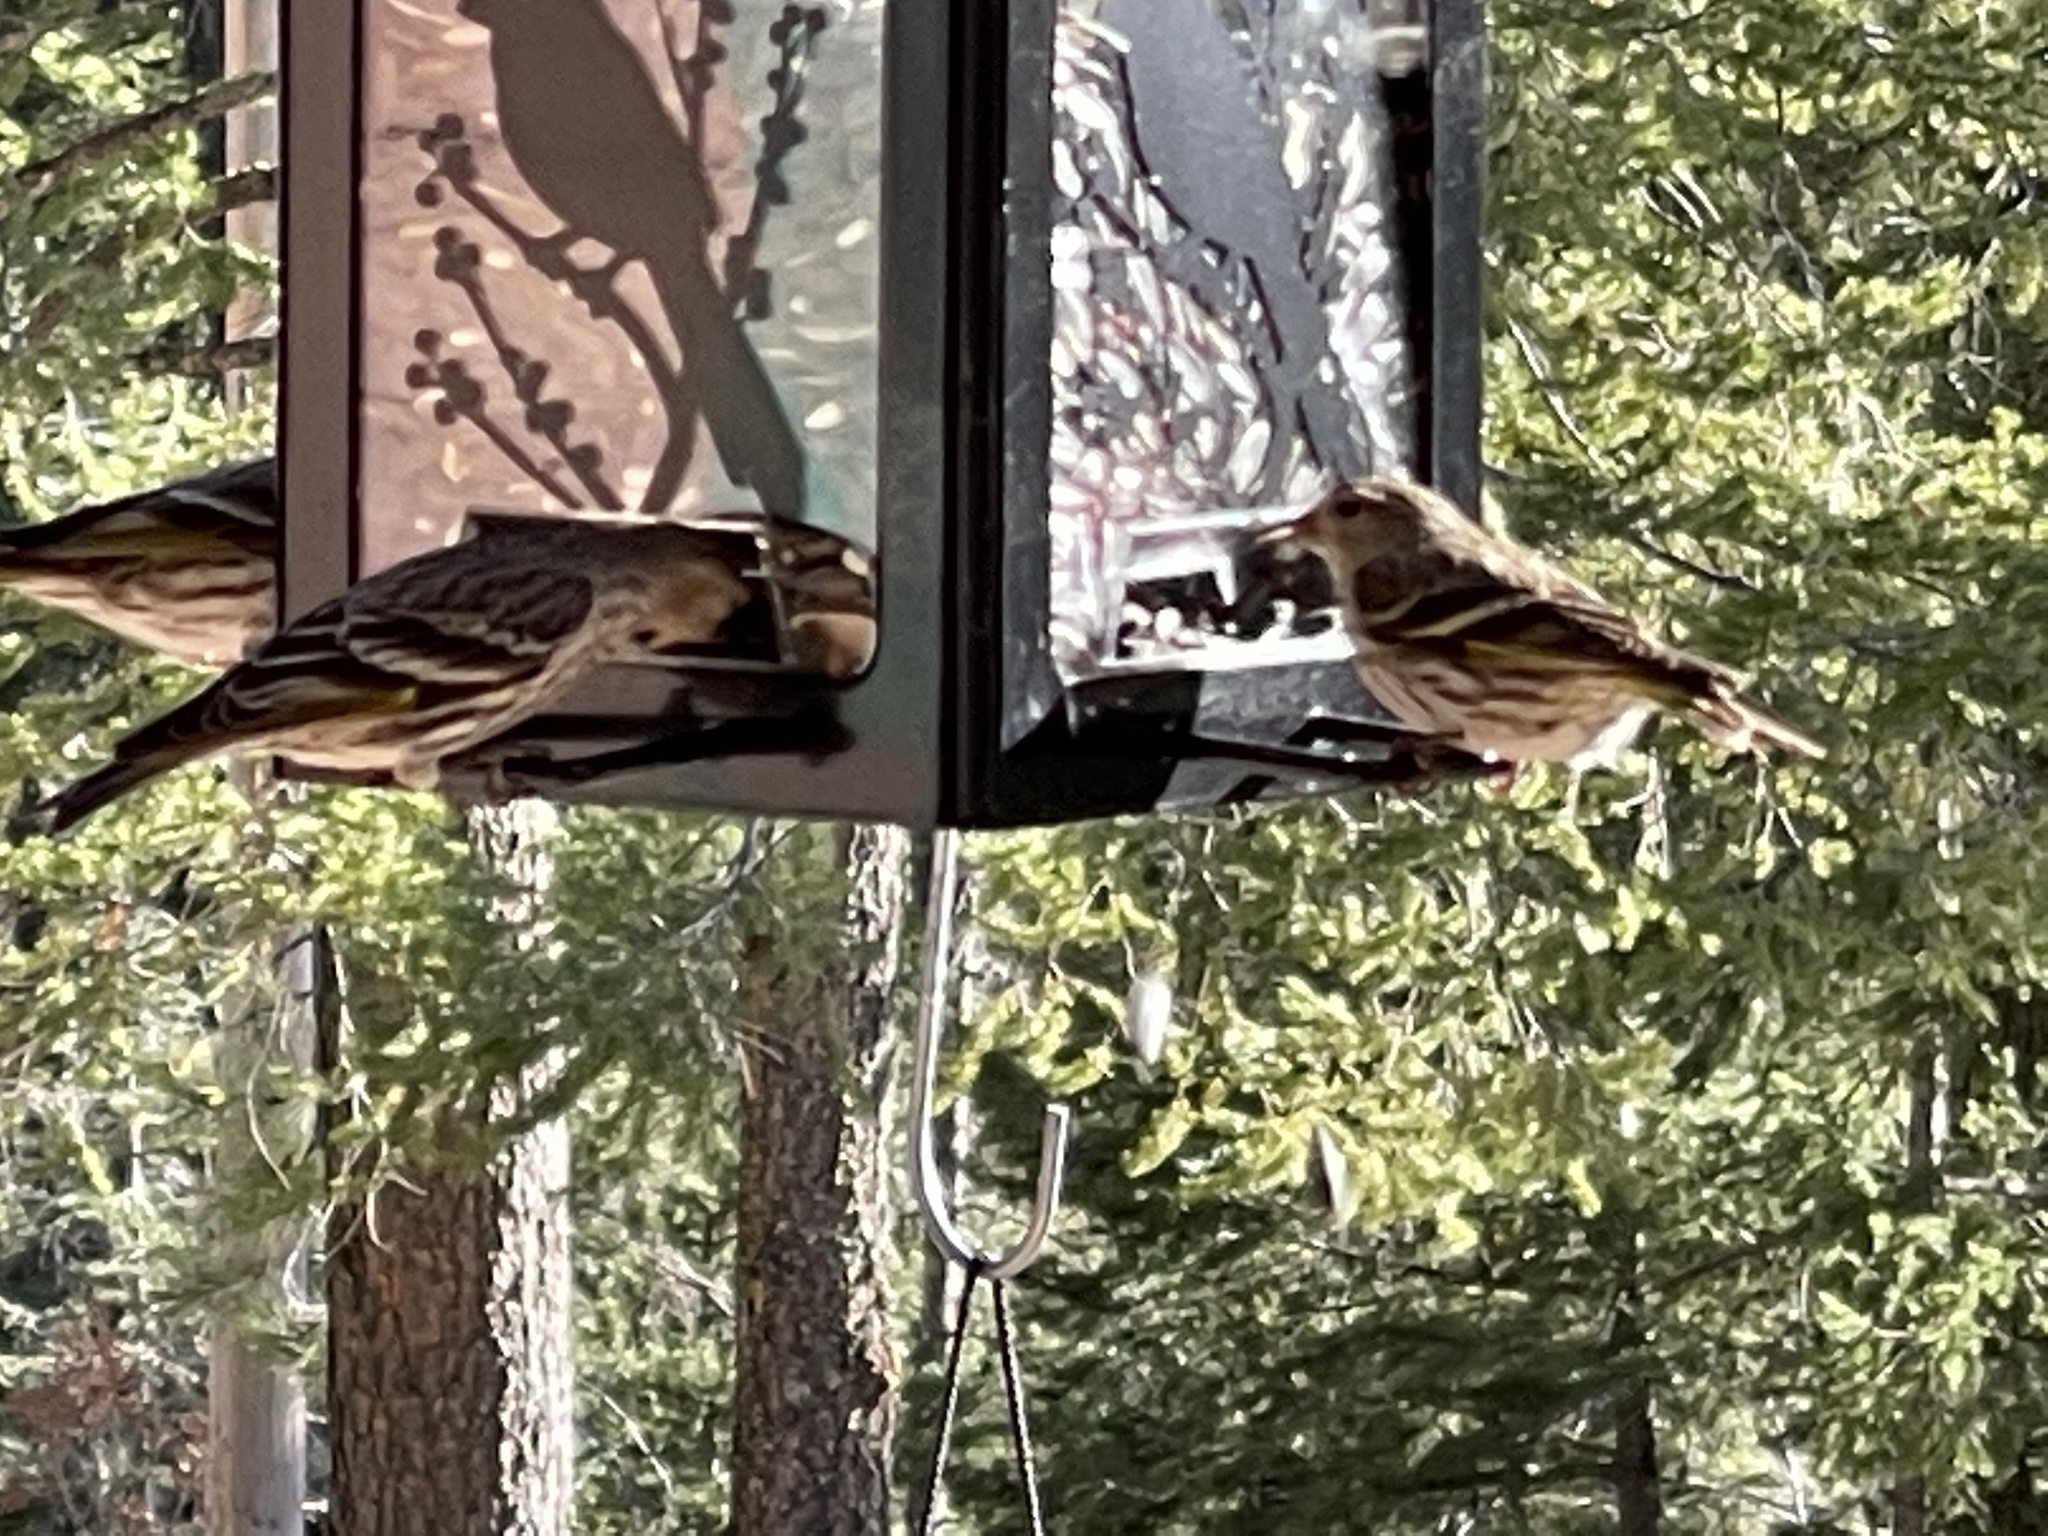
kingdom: Animalia
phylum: Chordata
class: Aves
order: Passeriformes
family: Fringillidae
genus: Spinus
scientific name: Spinus pinus
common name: Pine siskin
